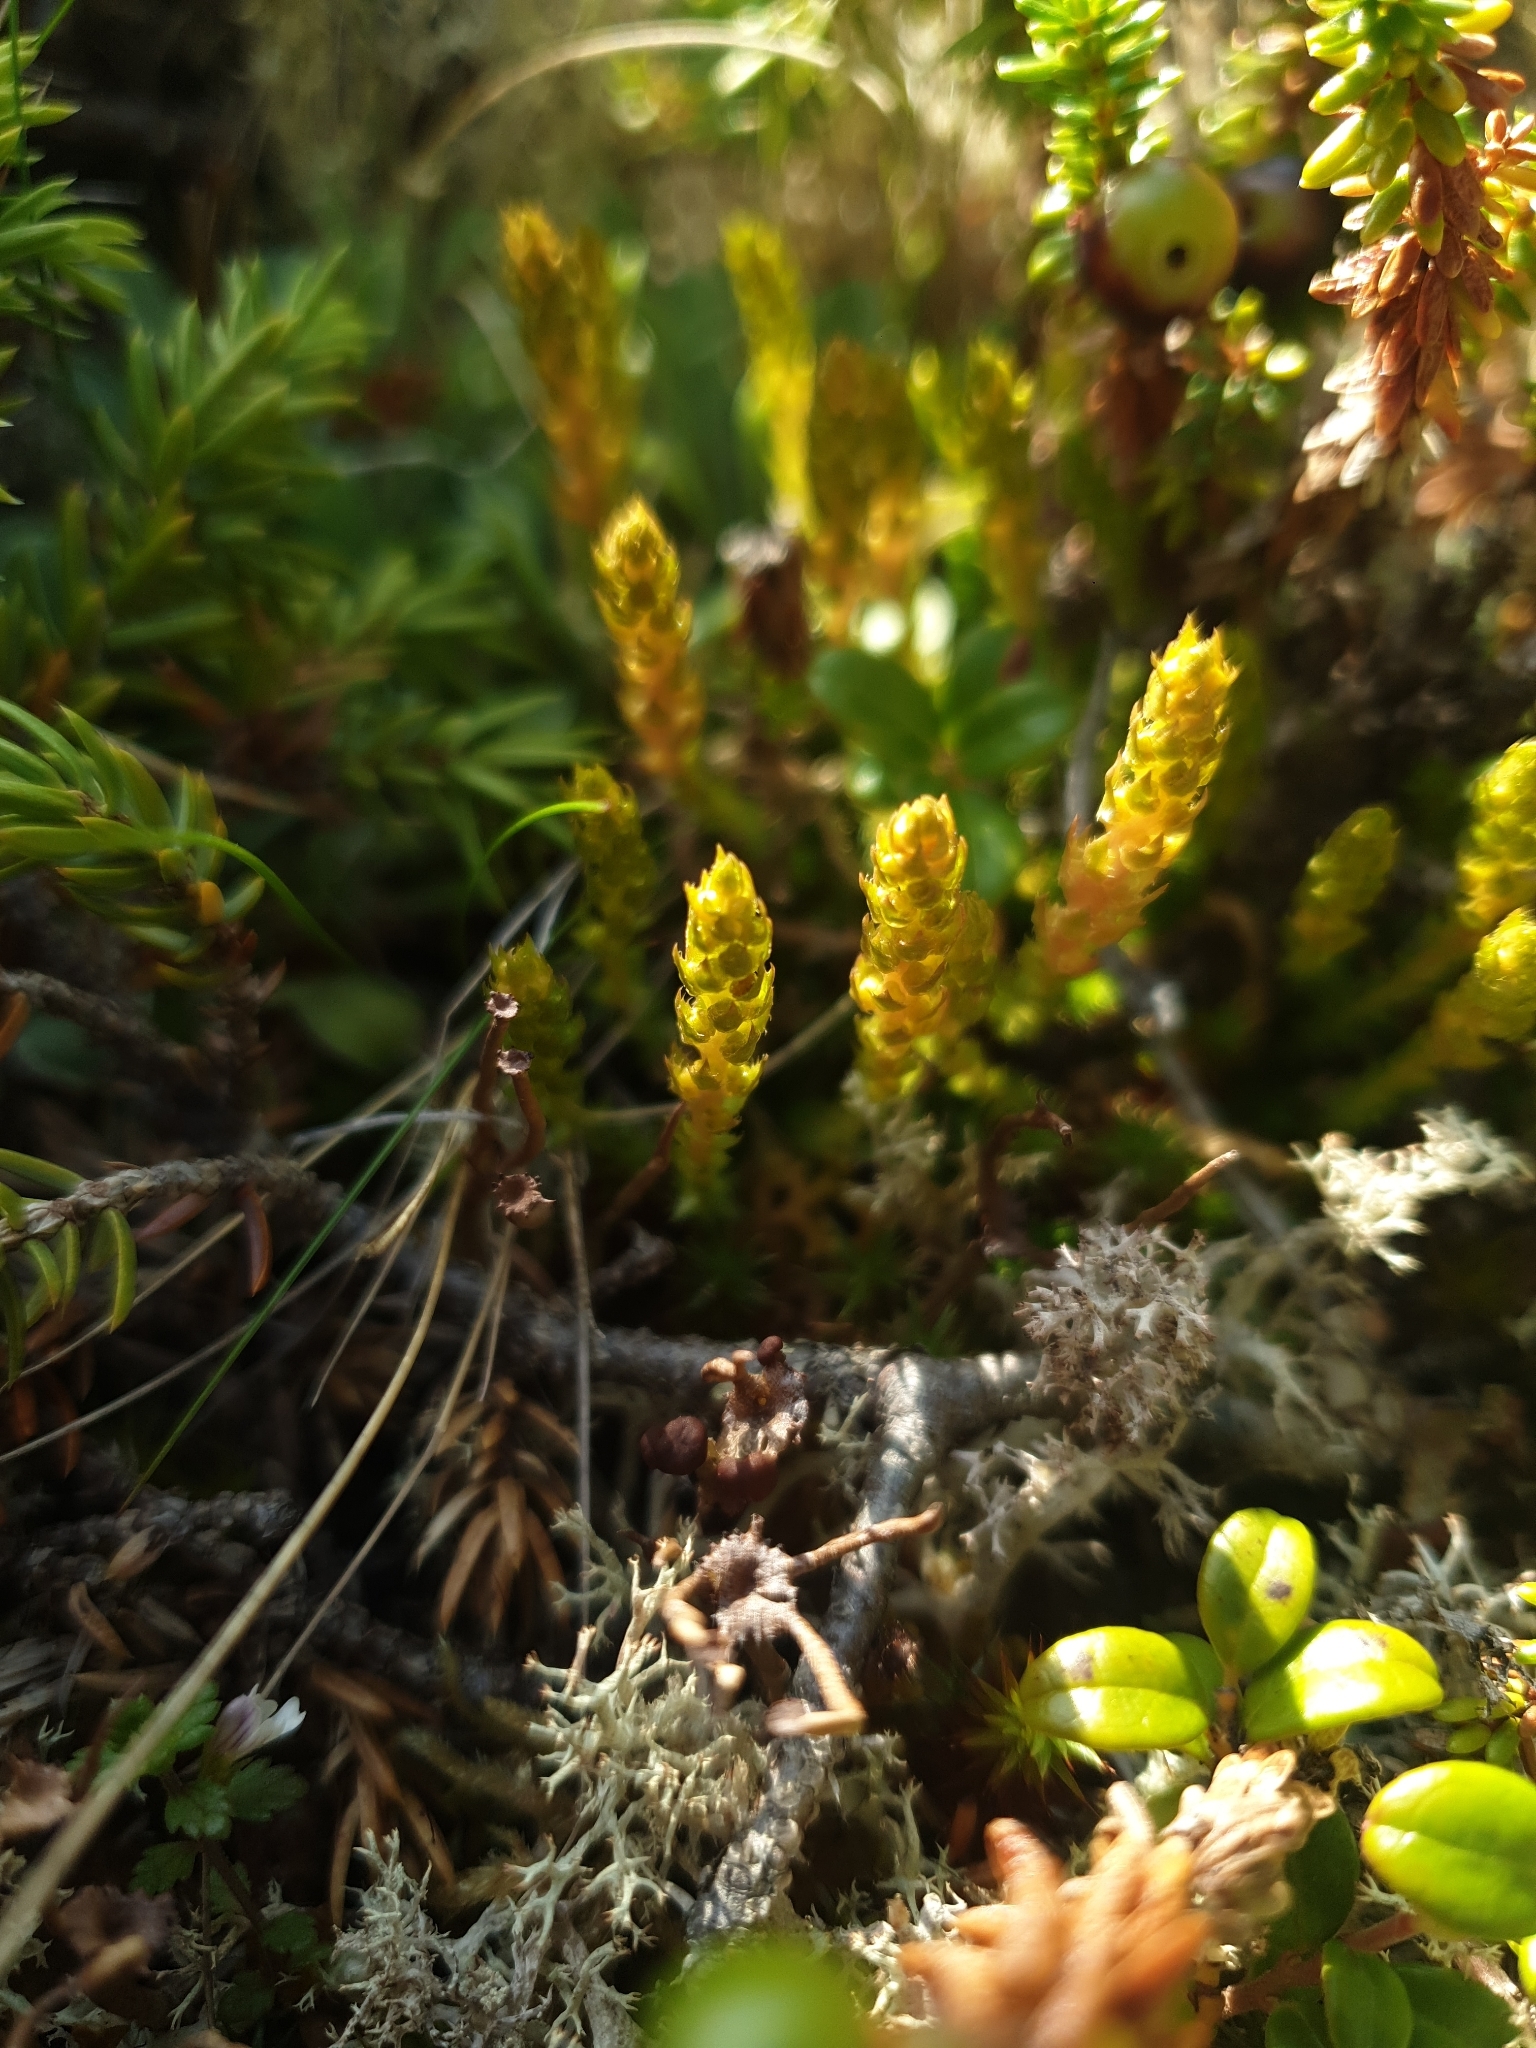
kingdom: Plantae
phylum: Tracheophyta
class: Lycopodiopsida
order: Selaginellales
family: Selaginellaceae
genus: Selaginella
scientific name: Selaginella selaginoides
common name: Prickly mountain-moss
